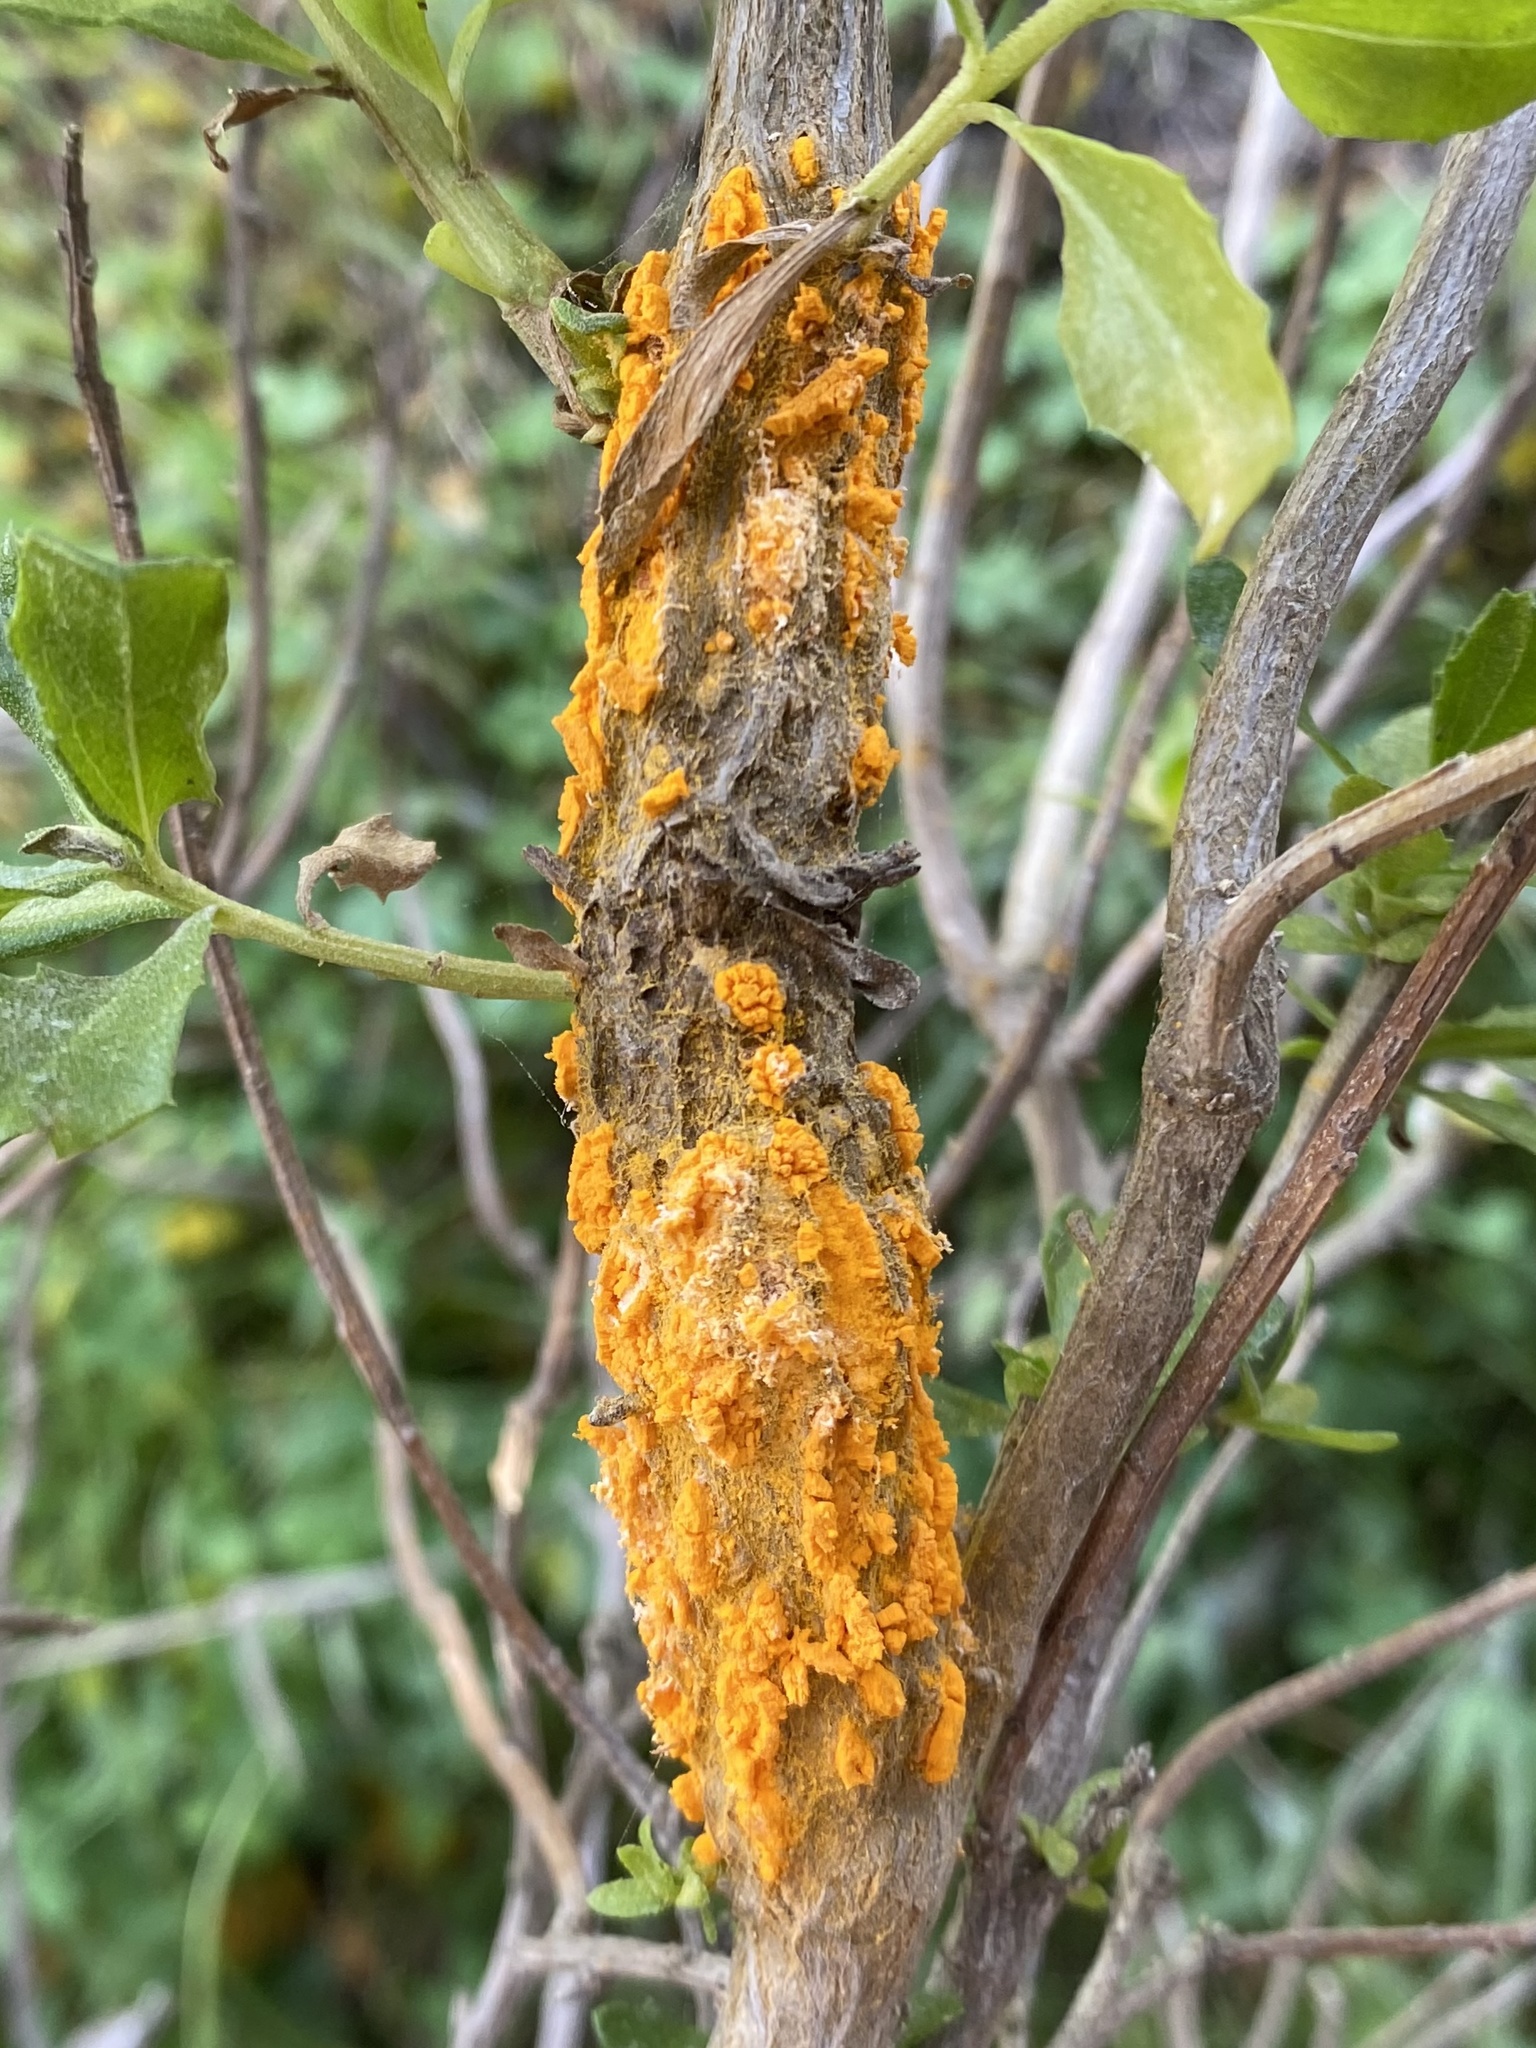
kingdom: Fungi
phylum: Basidiomycota
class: Pucciniomycetes
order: Pucciniales
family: Pucciniaceae
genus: Eriosporangium
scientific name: Eriosporangium evadens
